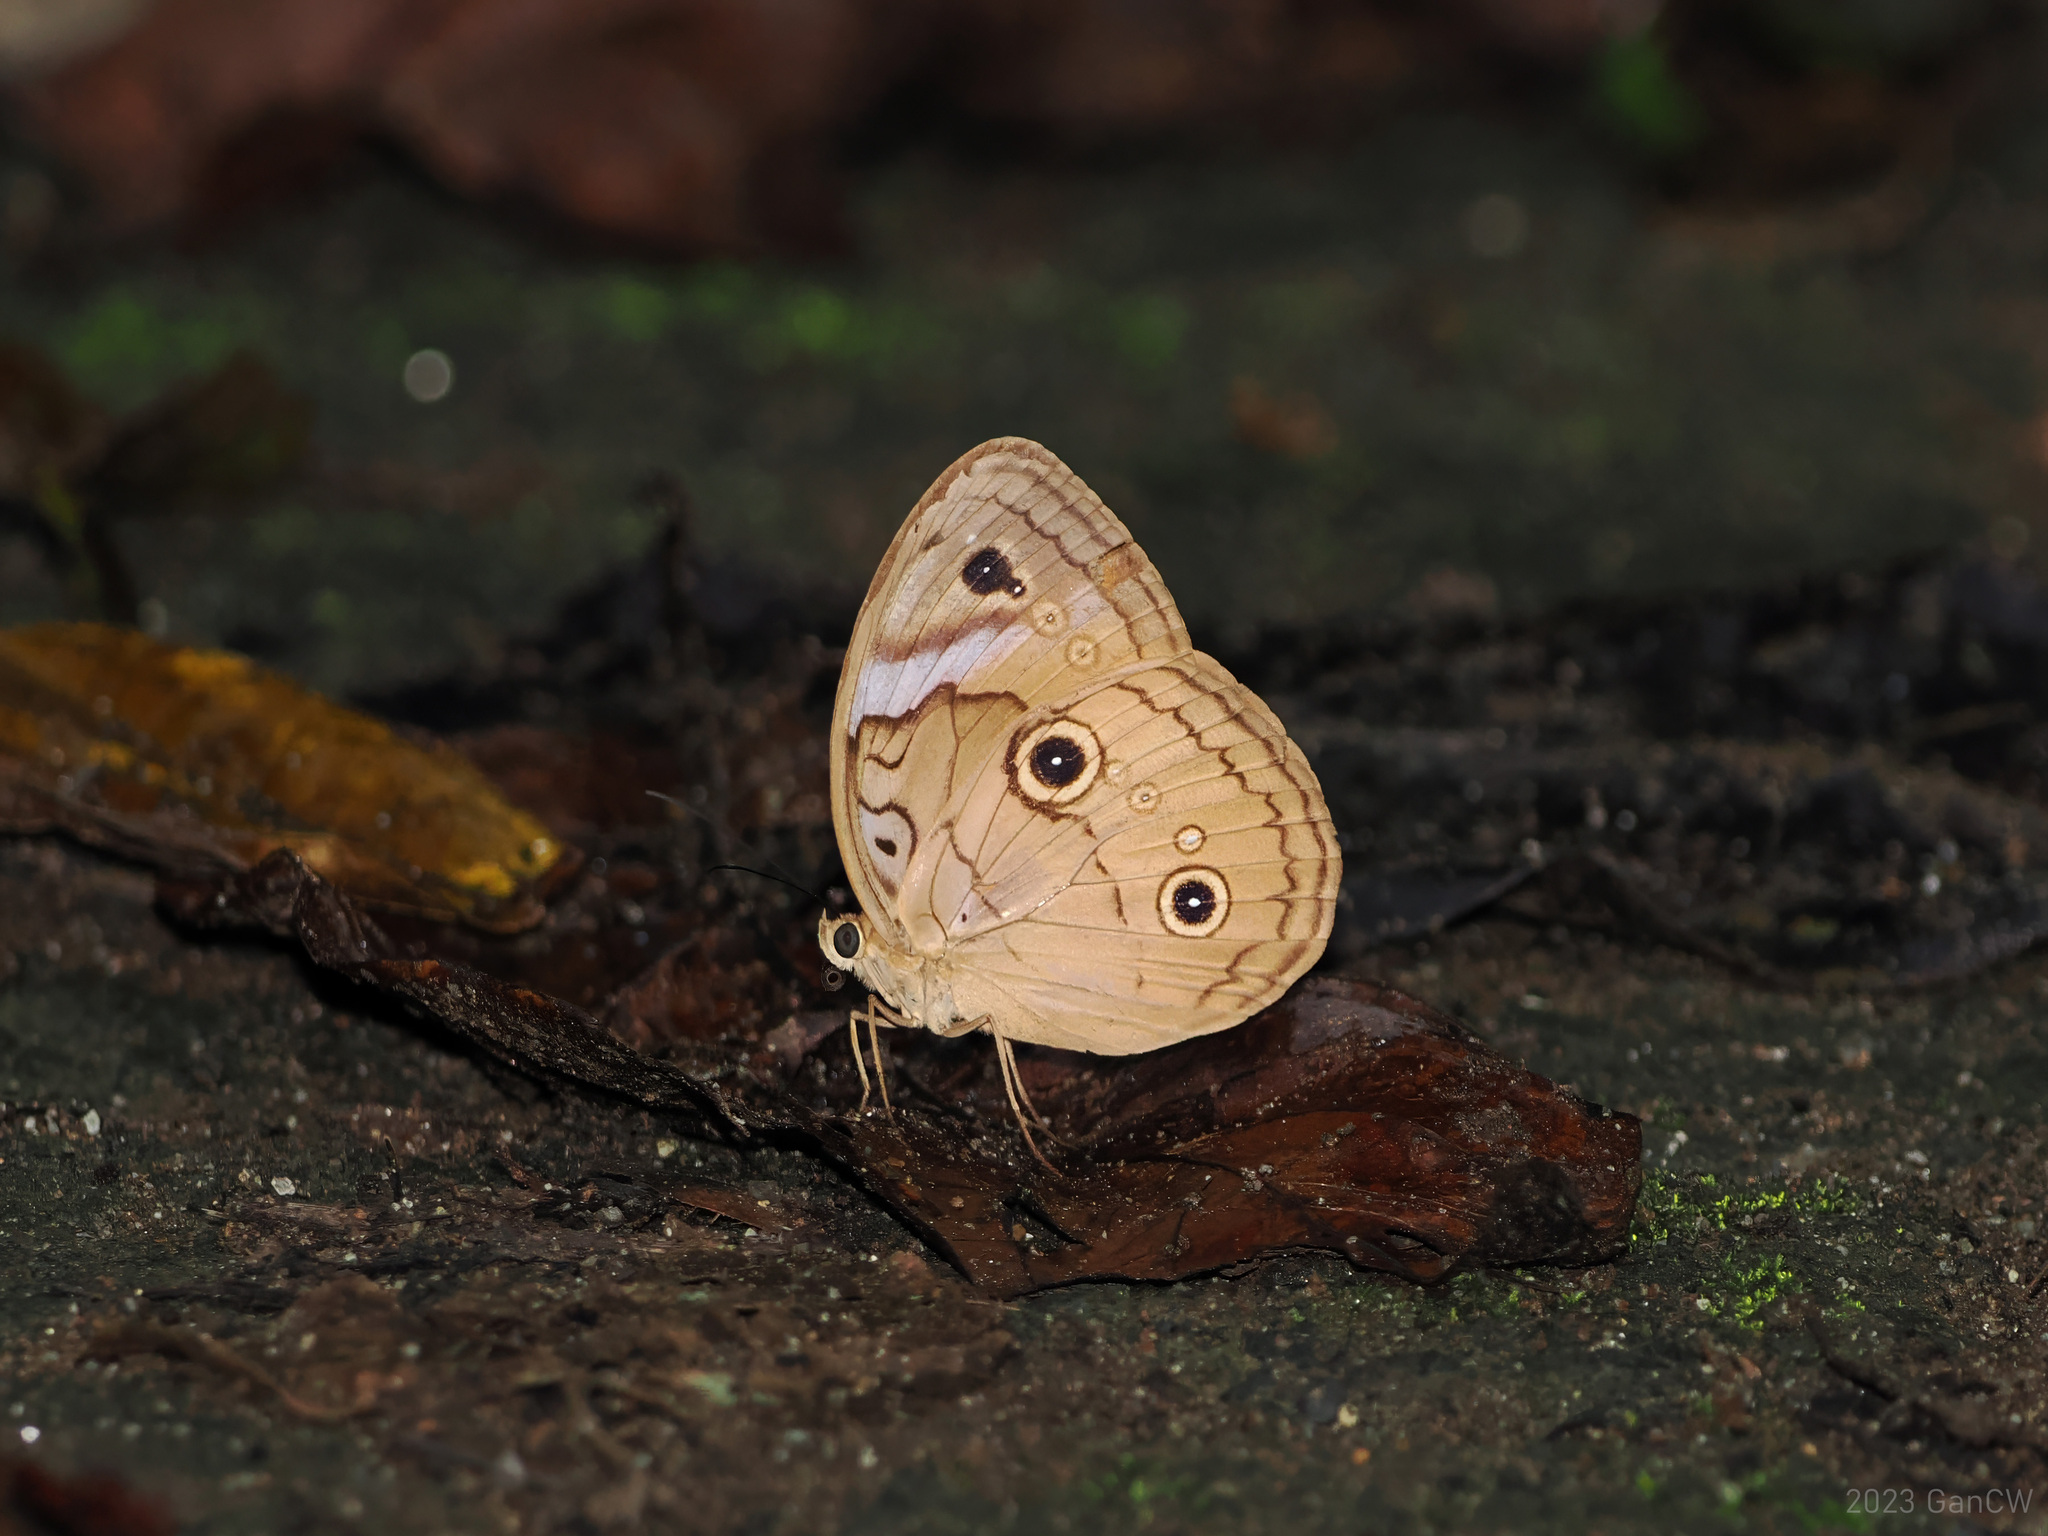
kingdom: Animalia
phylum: Arthropoda
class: Insecta
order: Lepidoptera
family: Nymphalidae
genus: Faunis
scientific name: Faunis menado
